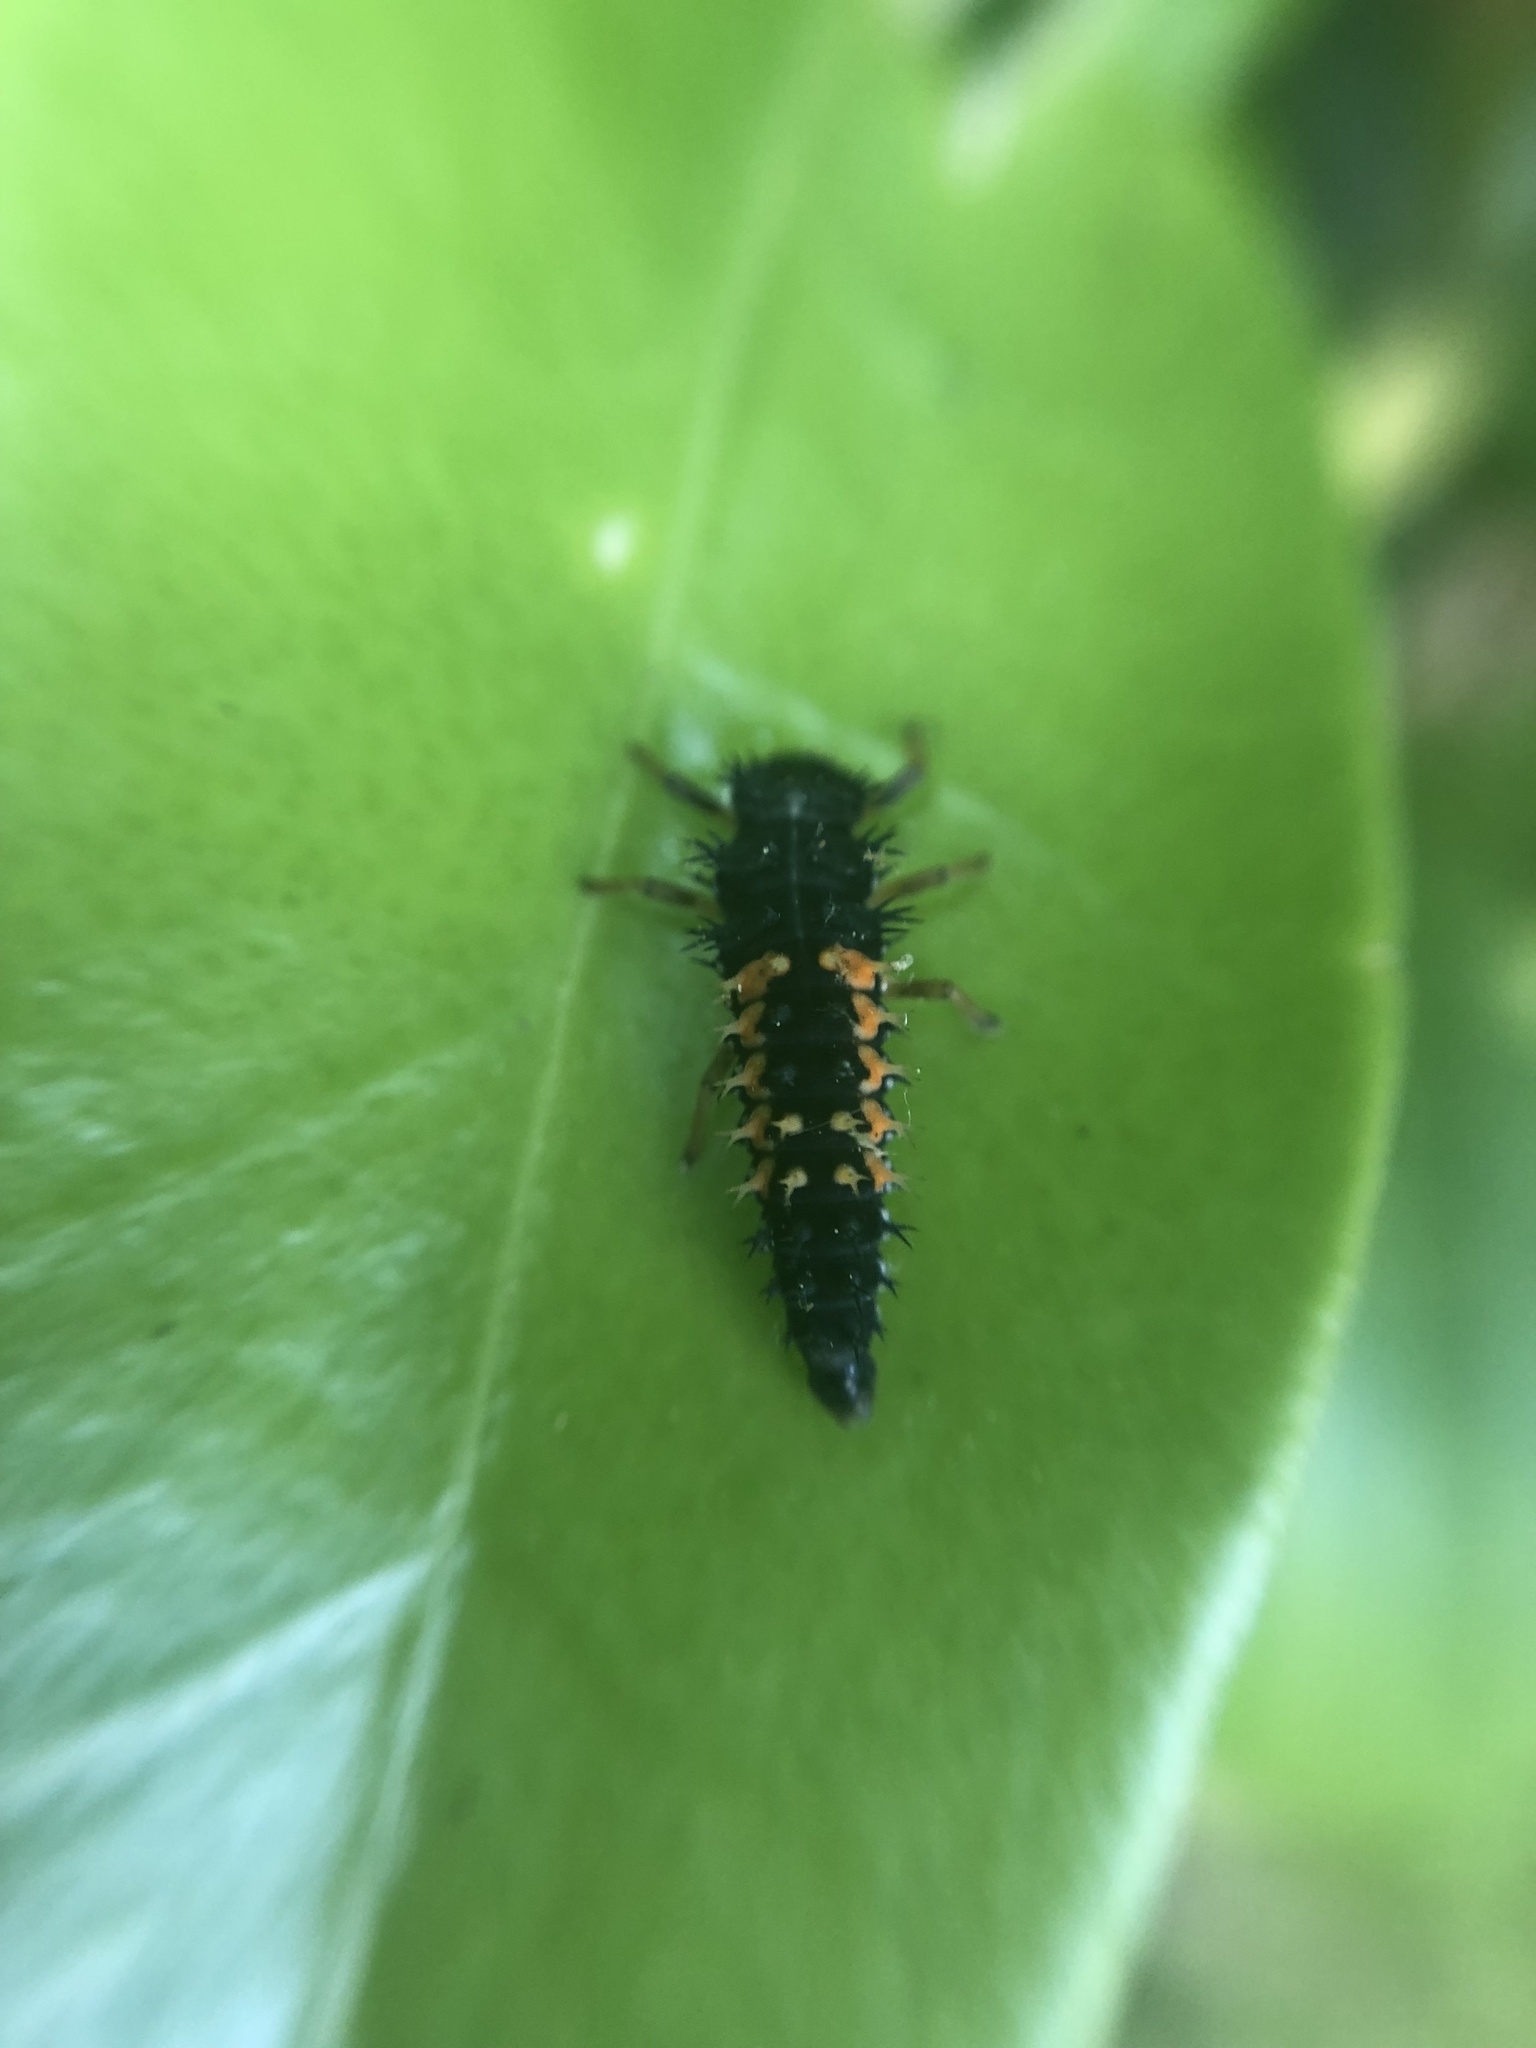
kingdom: Animalia
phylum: Arthropoda
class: Insecta
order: Coleoptera
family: Coccinellidae
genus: Harmonia
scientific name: Harmonia axyridis
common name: Harlequin ladybird
